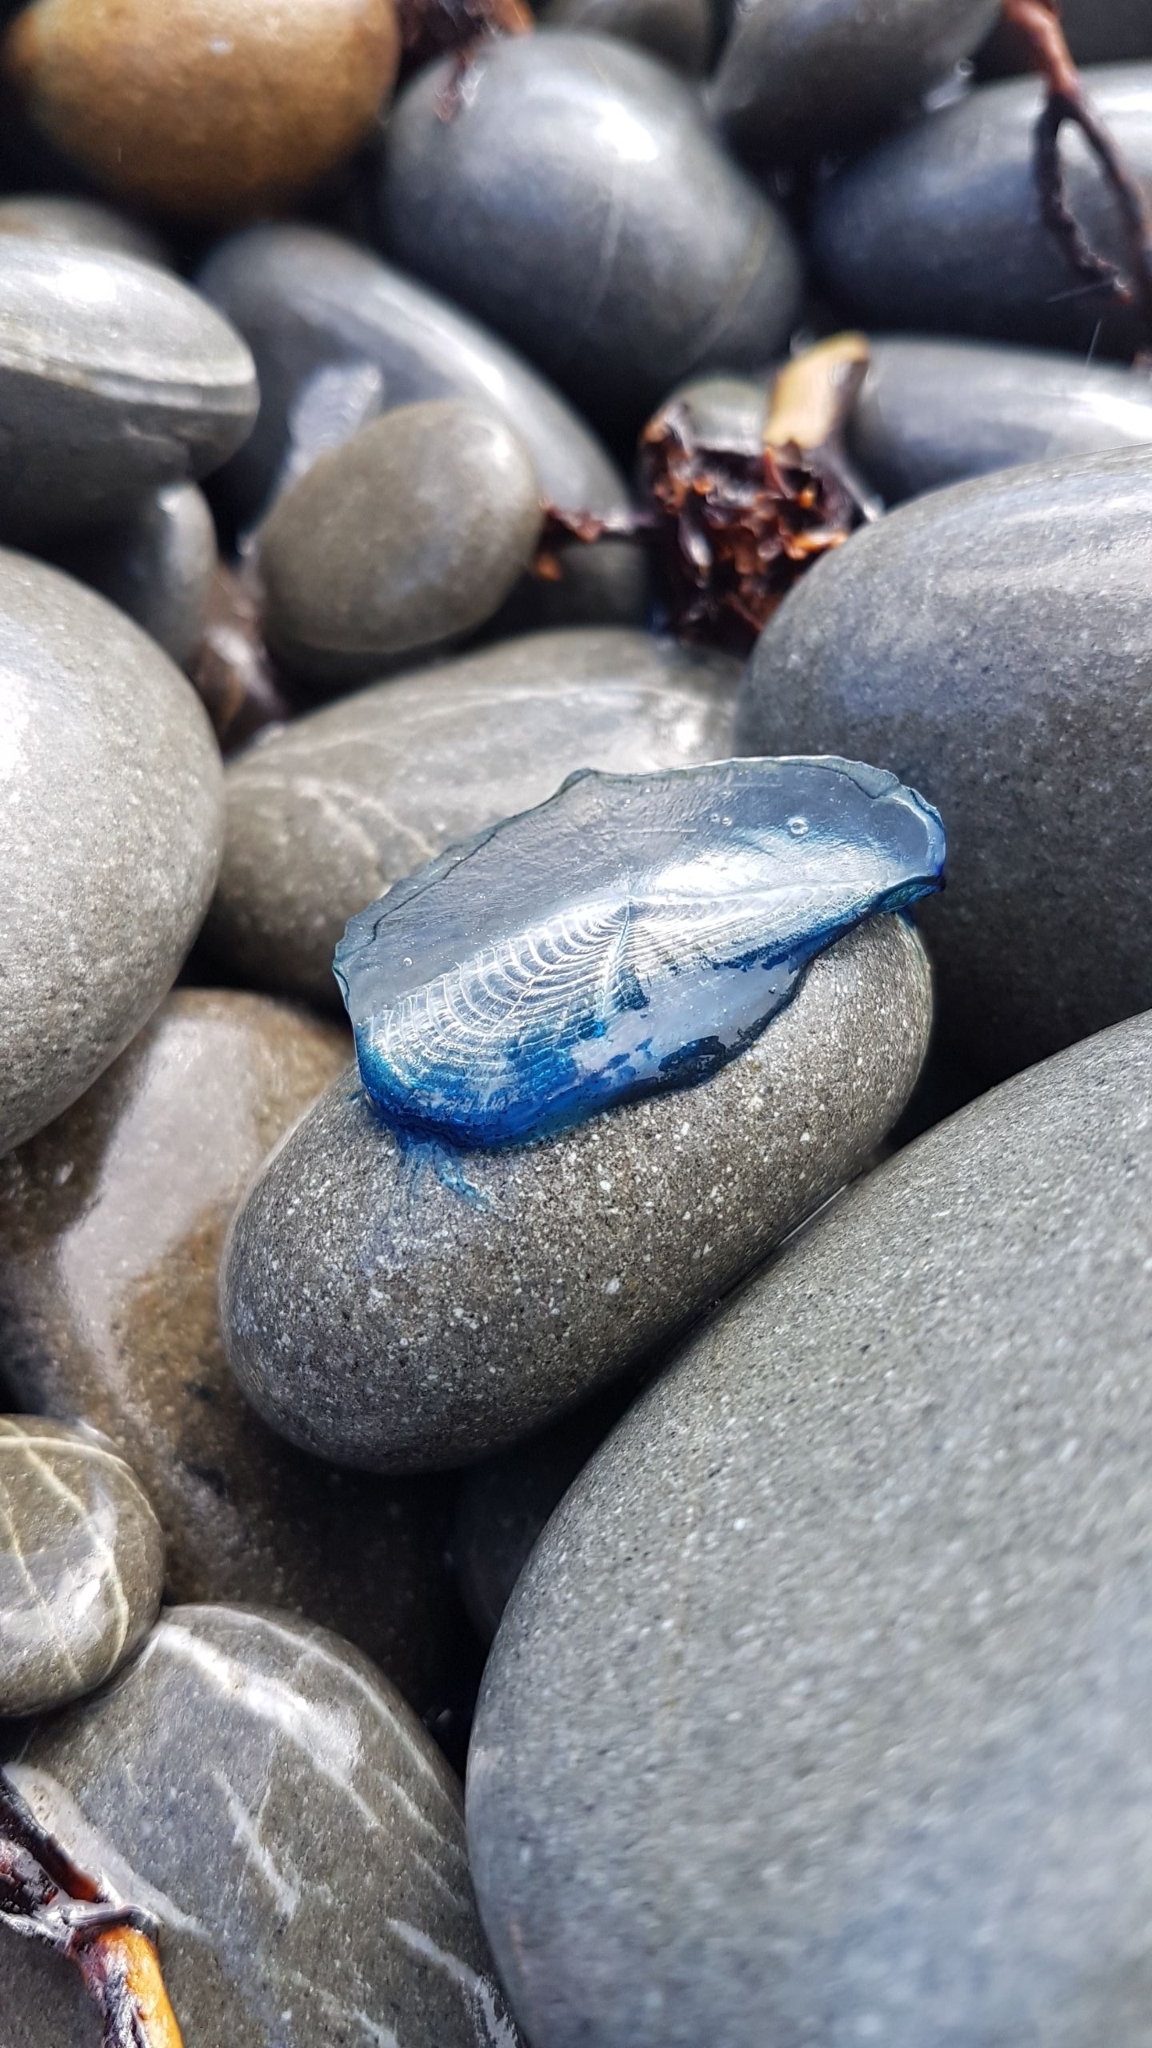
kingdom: Animalia
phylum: Cnidaria
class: Hydrozoa
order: Anthoathecata
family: Porpitidae
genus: Velella
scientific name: Velella velella
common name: By-the-wind-sailor
